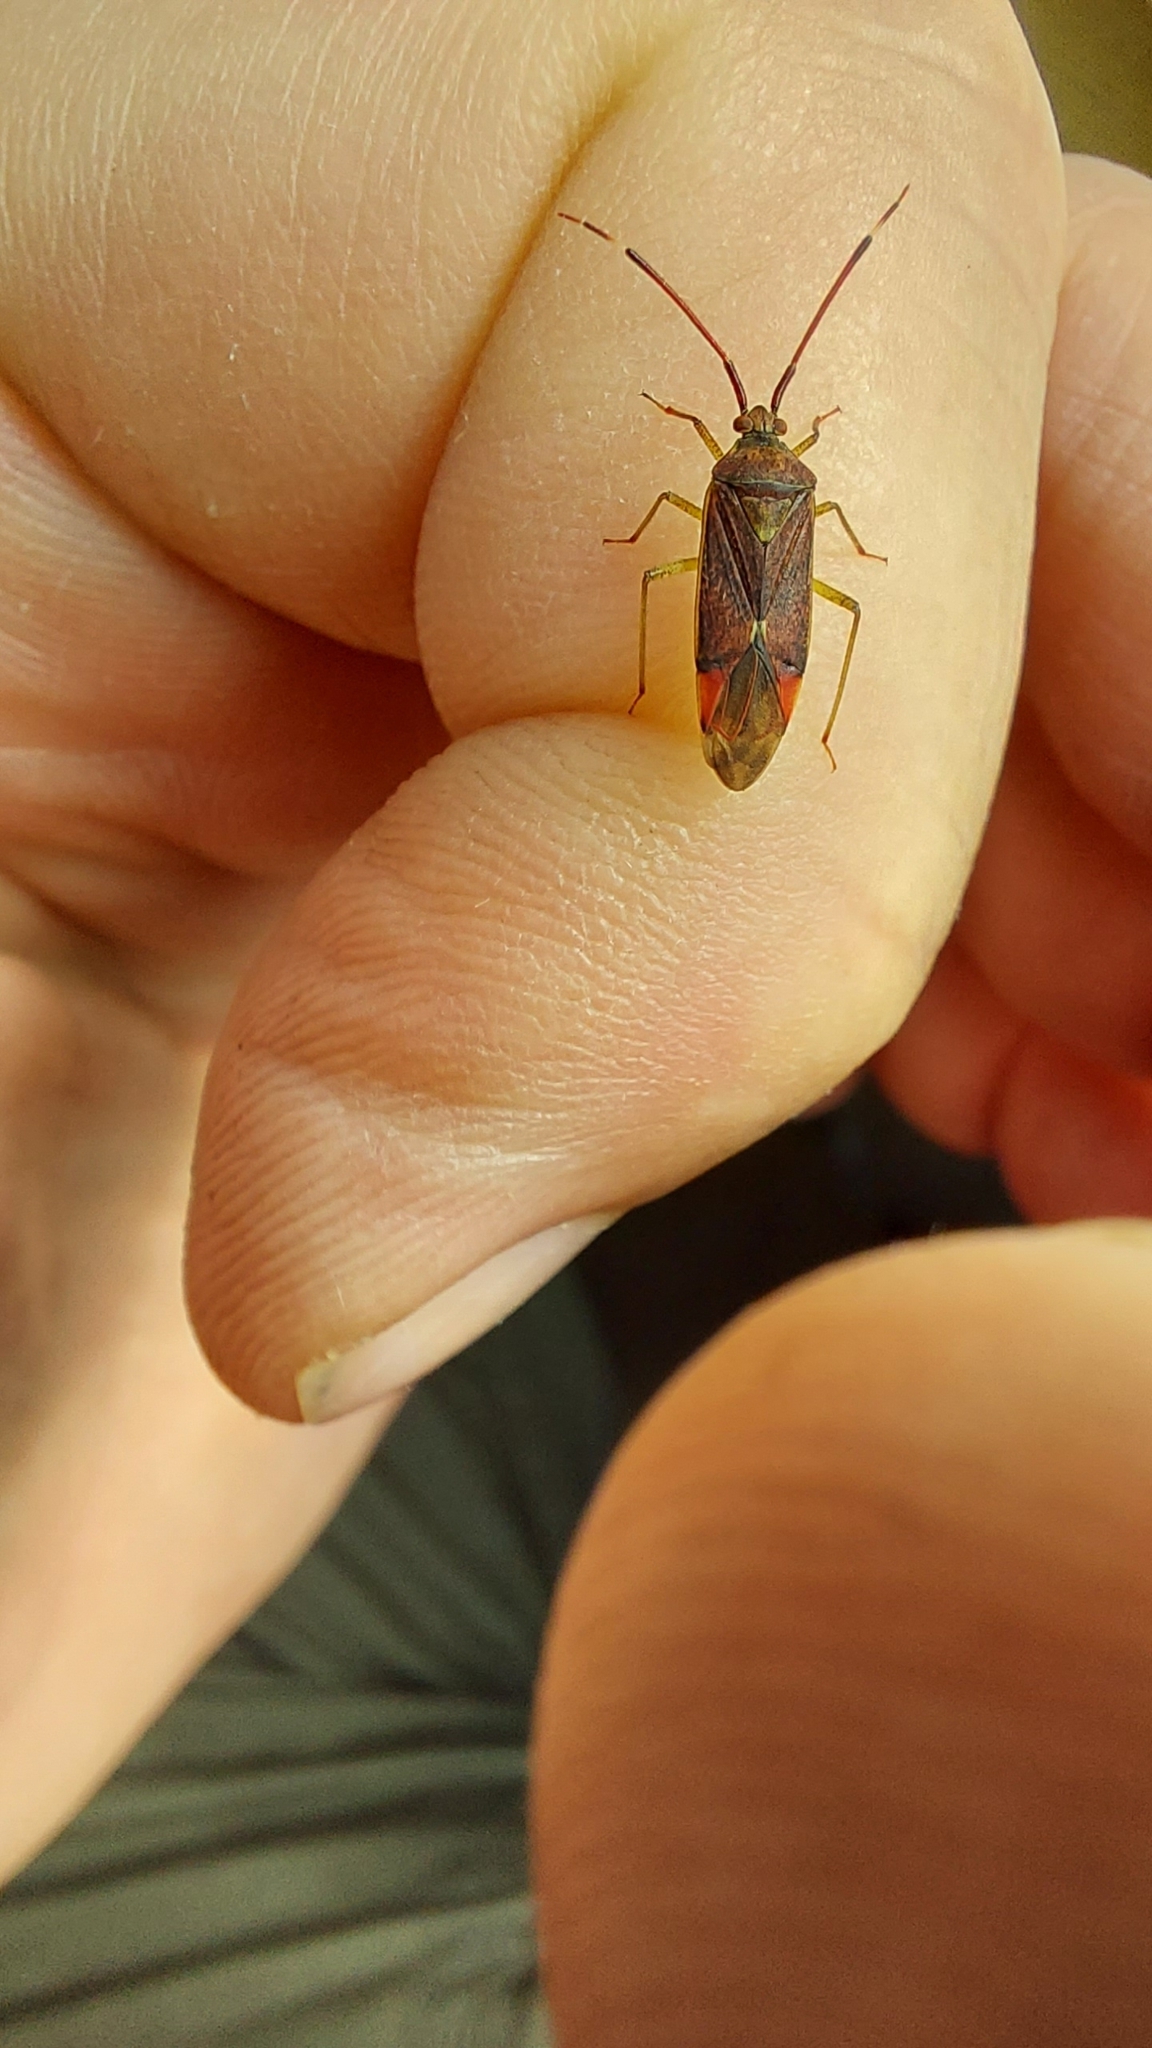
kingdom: Animalia
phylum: Arthropoda
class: Insecta
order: Hemiptera
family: Miridae
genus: Pantilius
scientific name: Pantilius tunicatus
